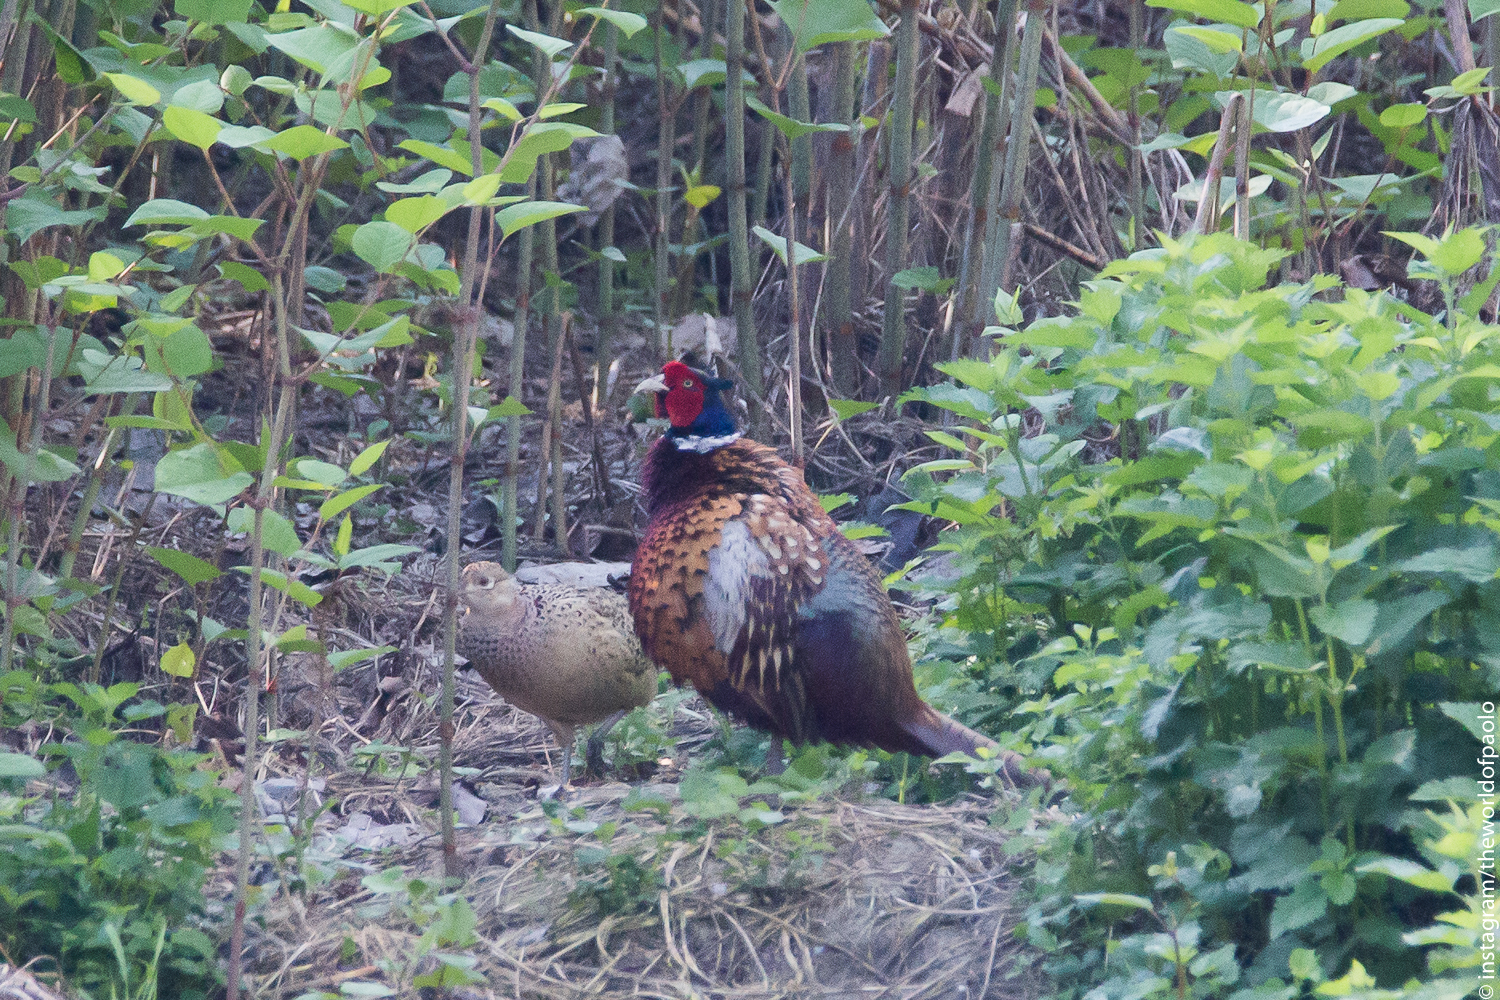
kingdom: Animalia
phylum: Chordata
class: Aves
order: Galliformes
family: Phasianidae
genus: Phasianus
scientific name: Phasianus colchicus
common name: Common pheasant
